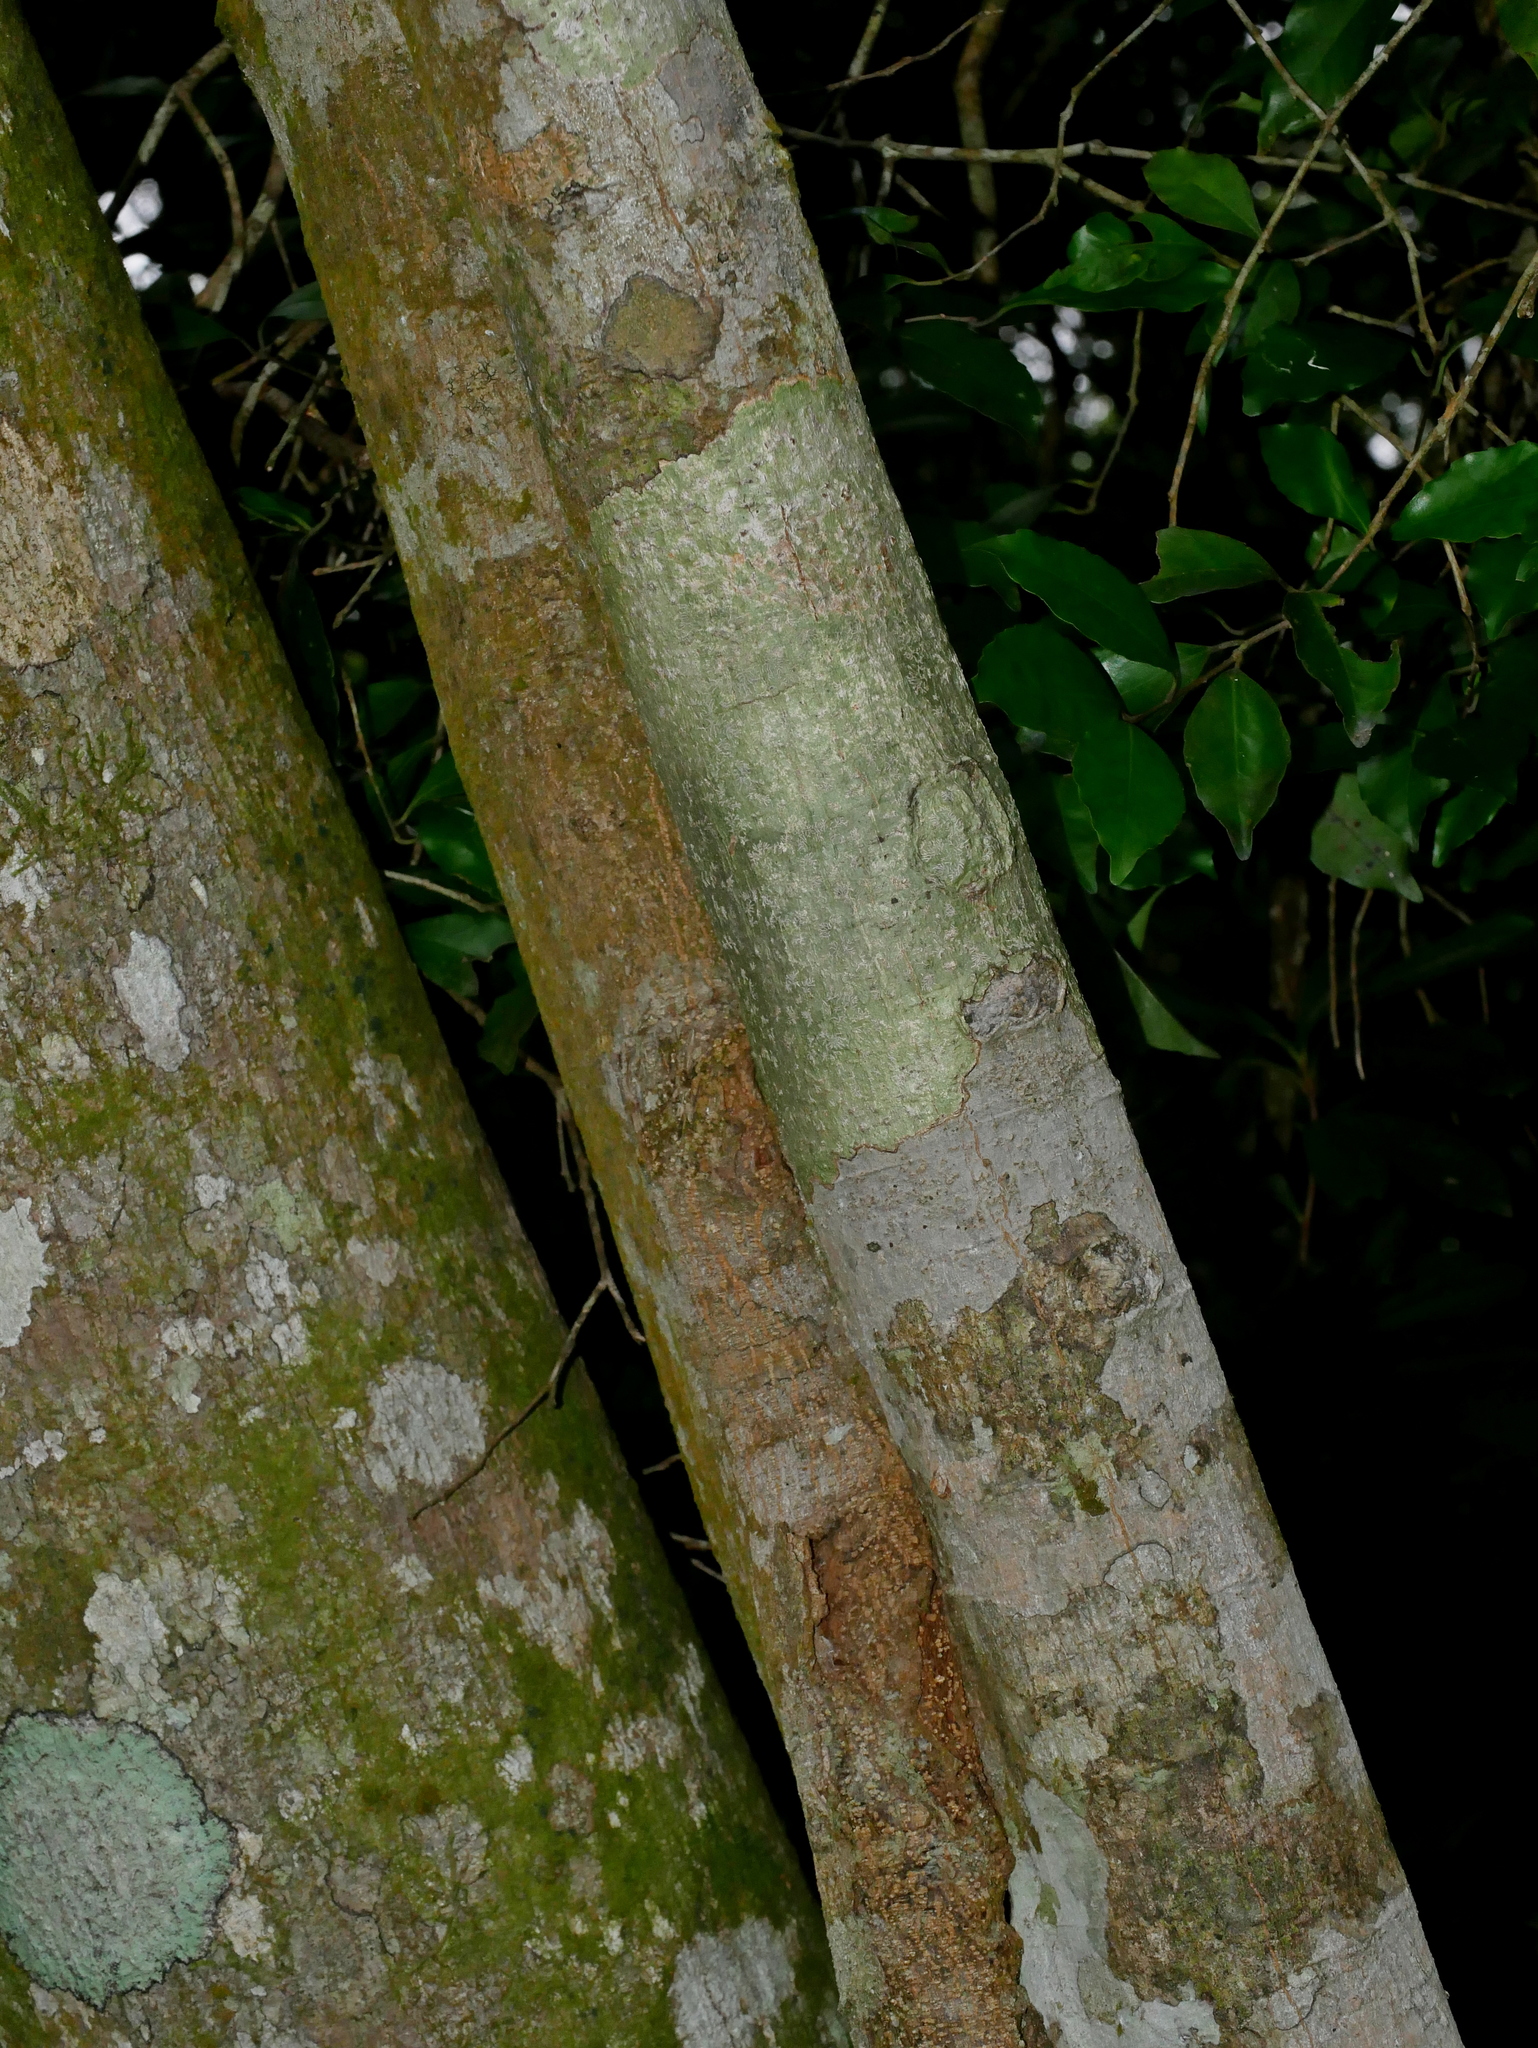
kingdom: Plantae
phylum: Tracheophyta
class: Magnoliopsida
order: Fagales
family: Fagaceae
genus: Quercus
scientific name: Quercus pachyloma
